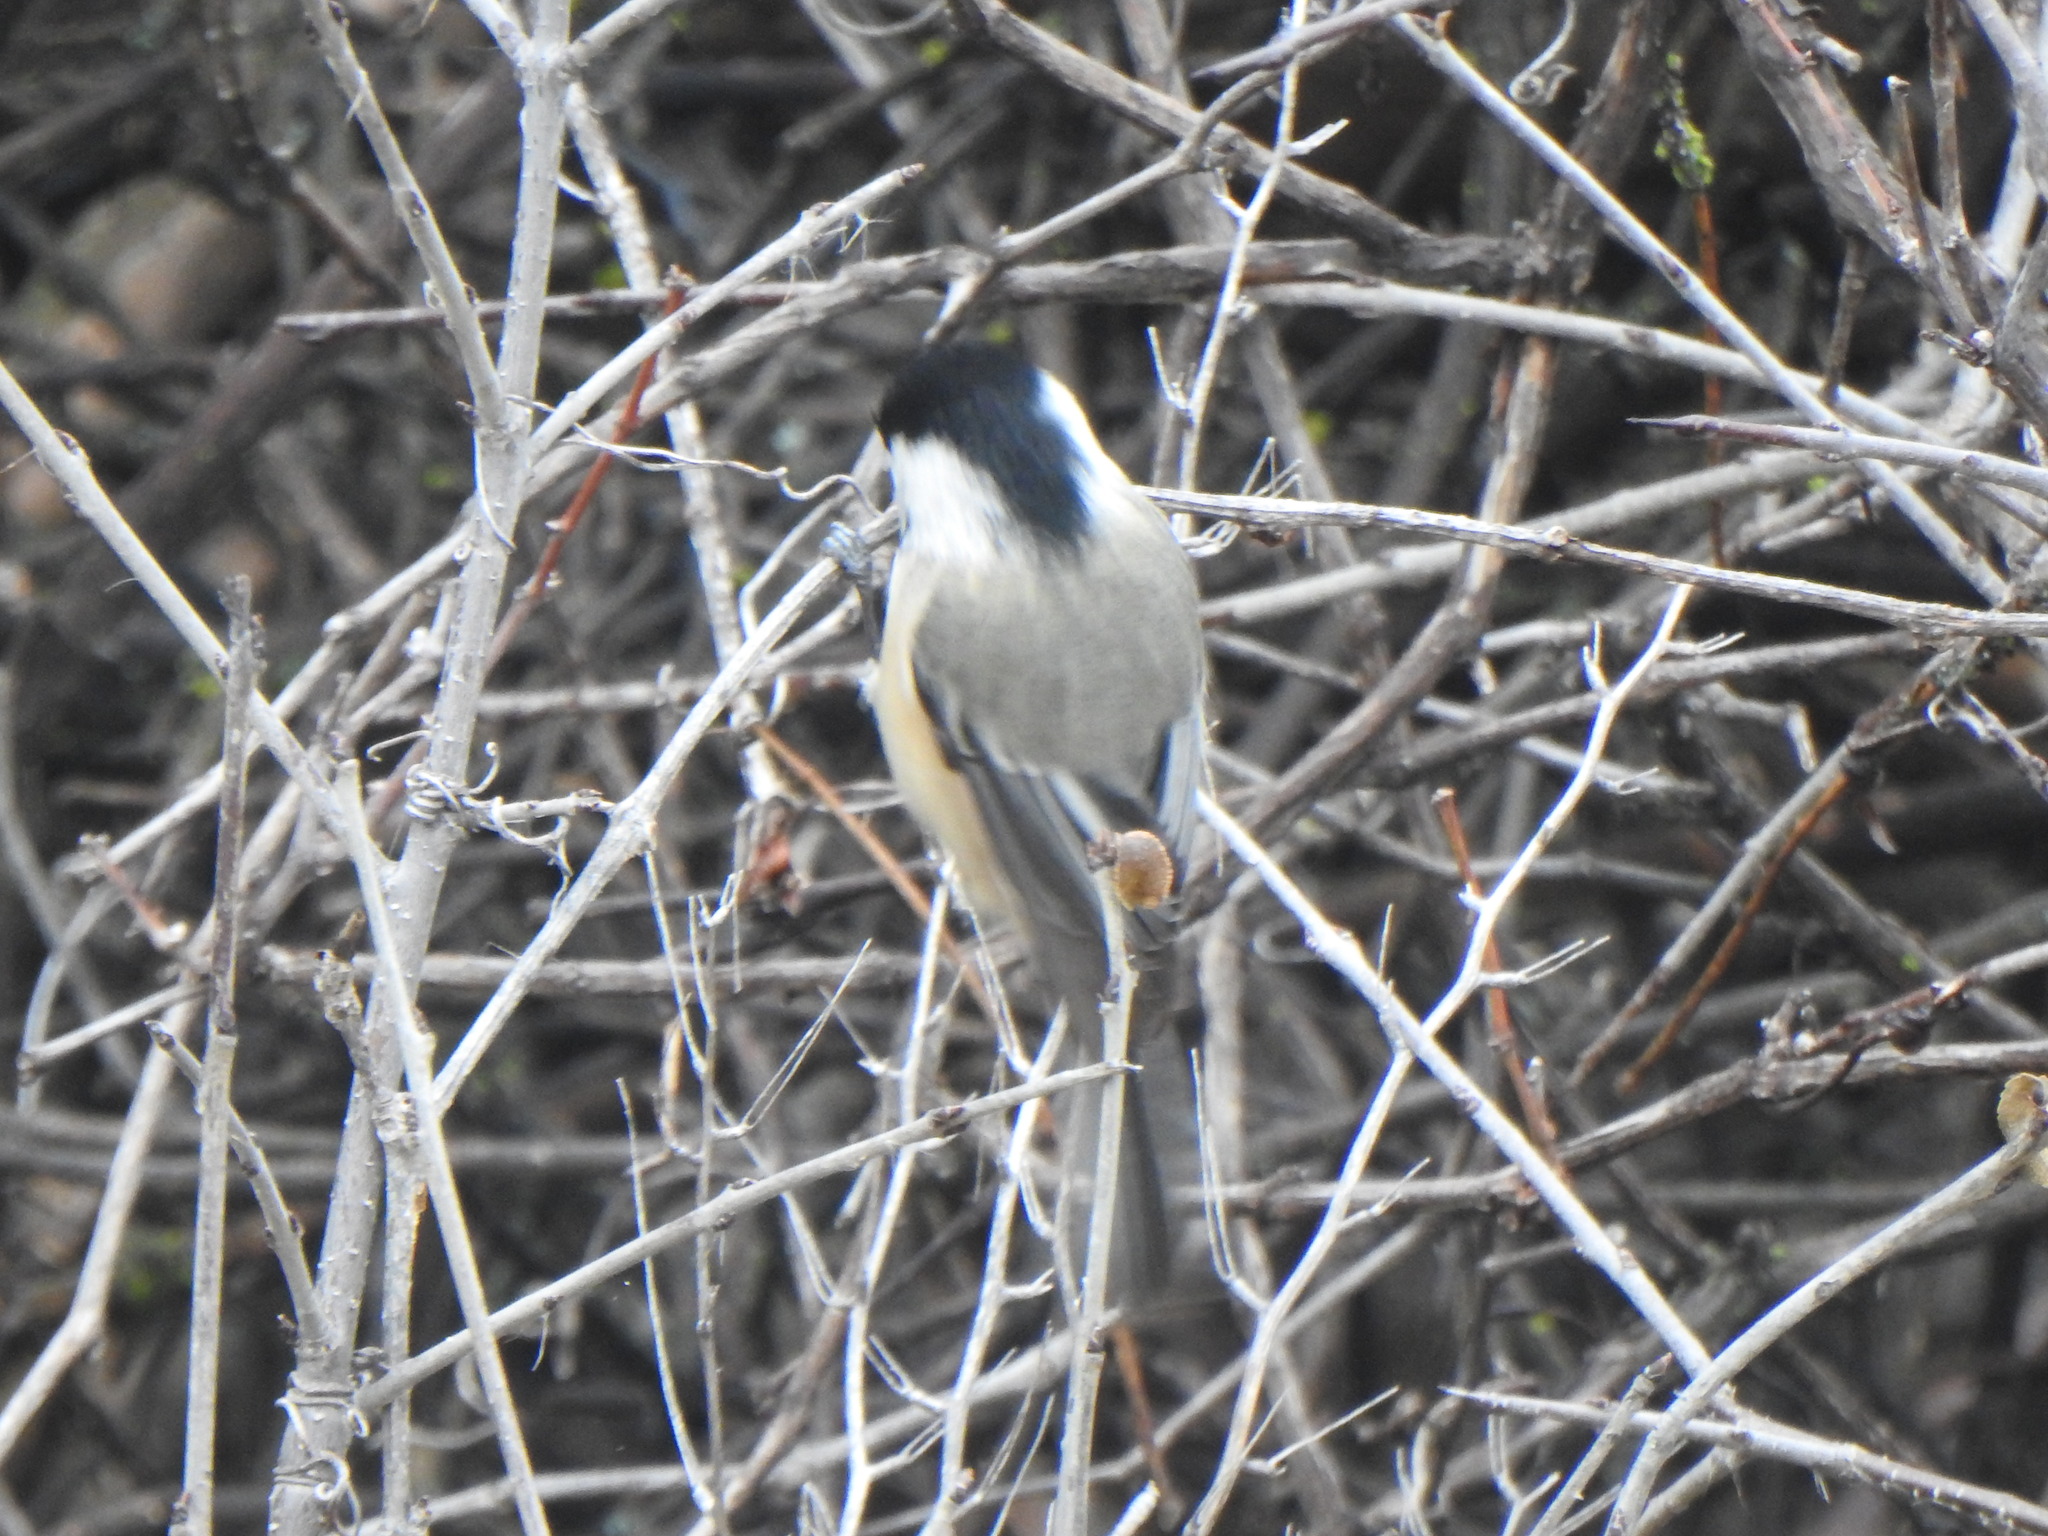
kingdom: Animalia
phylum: Chordata
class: Aves
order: Passeriformes
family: Paridae
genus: Poecile
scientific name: Poecile atricapillus
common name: Black-capped chickadee
